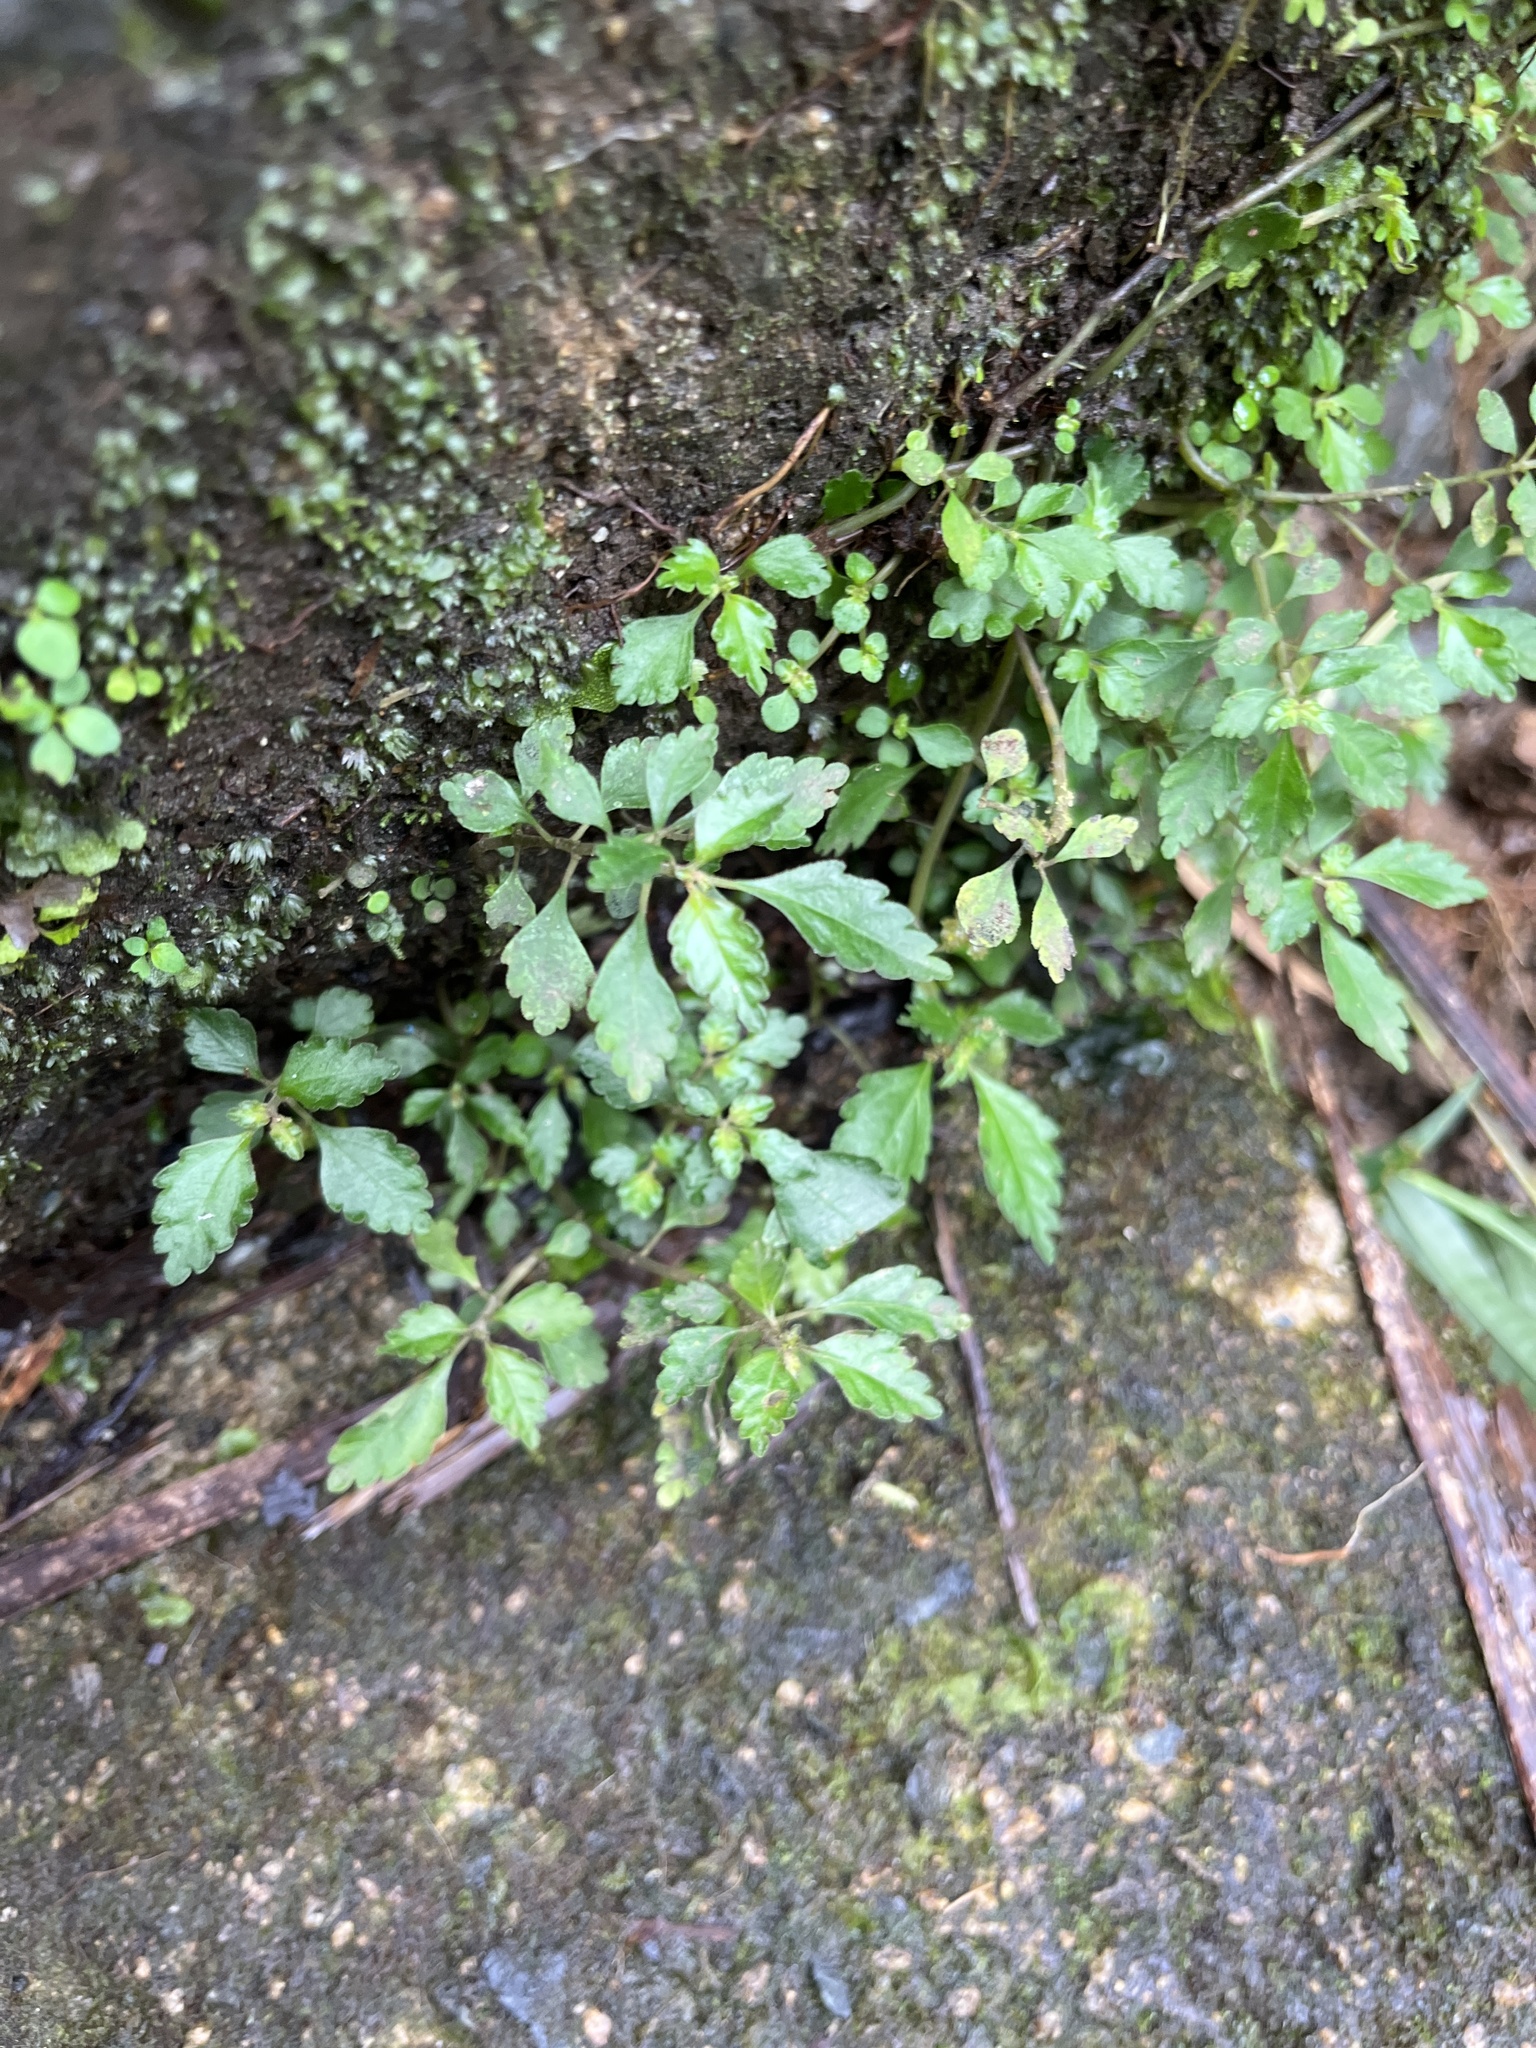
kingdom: Plantae
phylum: Tracheophyta
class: Magnoliopsida
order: Rosales
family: Urticaceae
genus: Pilea
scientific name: Pilea inaequalis
